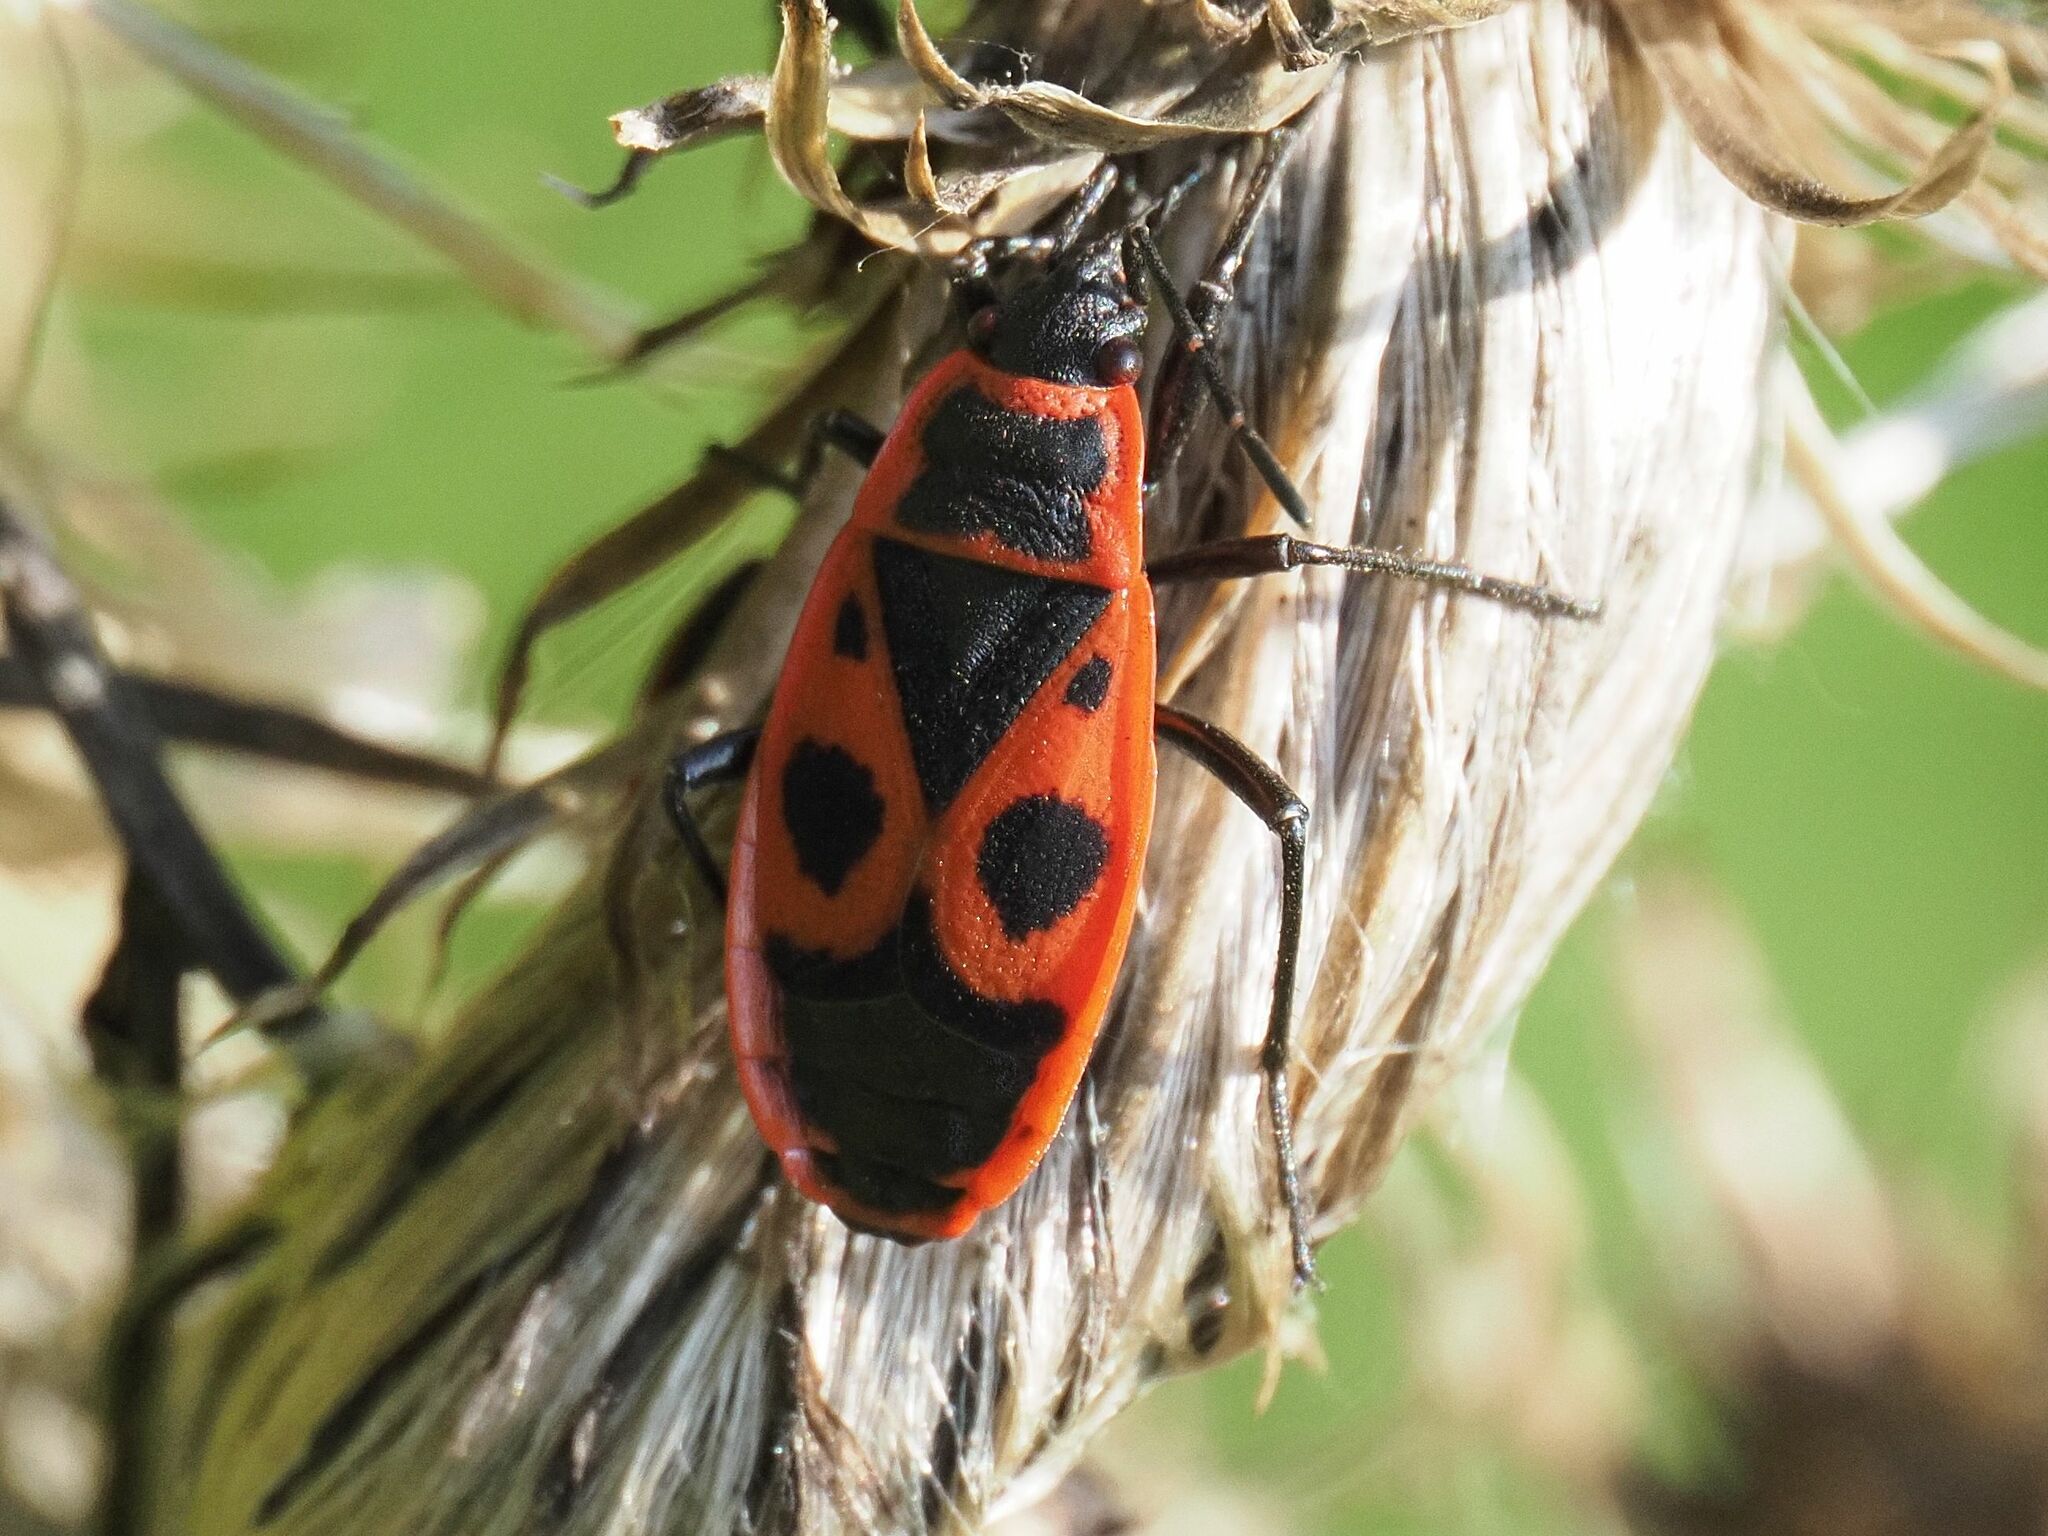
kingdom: Animalia
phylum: Arthropoda
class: Insecta
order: Hemiptera
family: Pyrrhocoridae
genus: Pyrrhocoris
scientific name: Pyrrhocoris apterus
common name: Firebug
